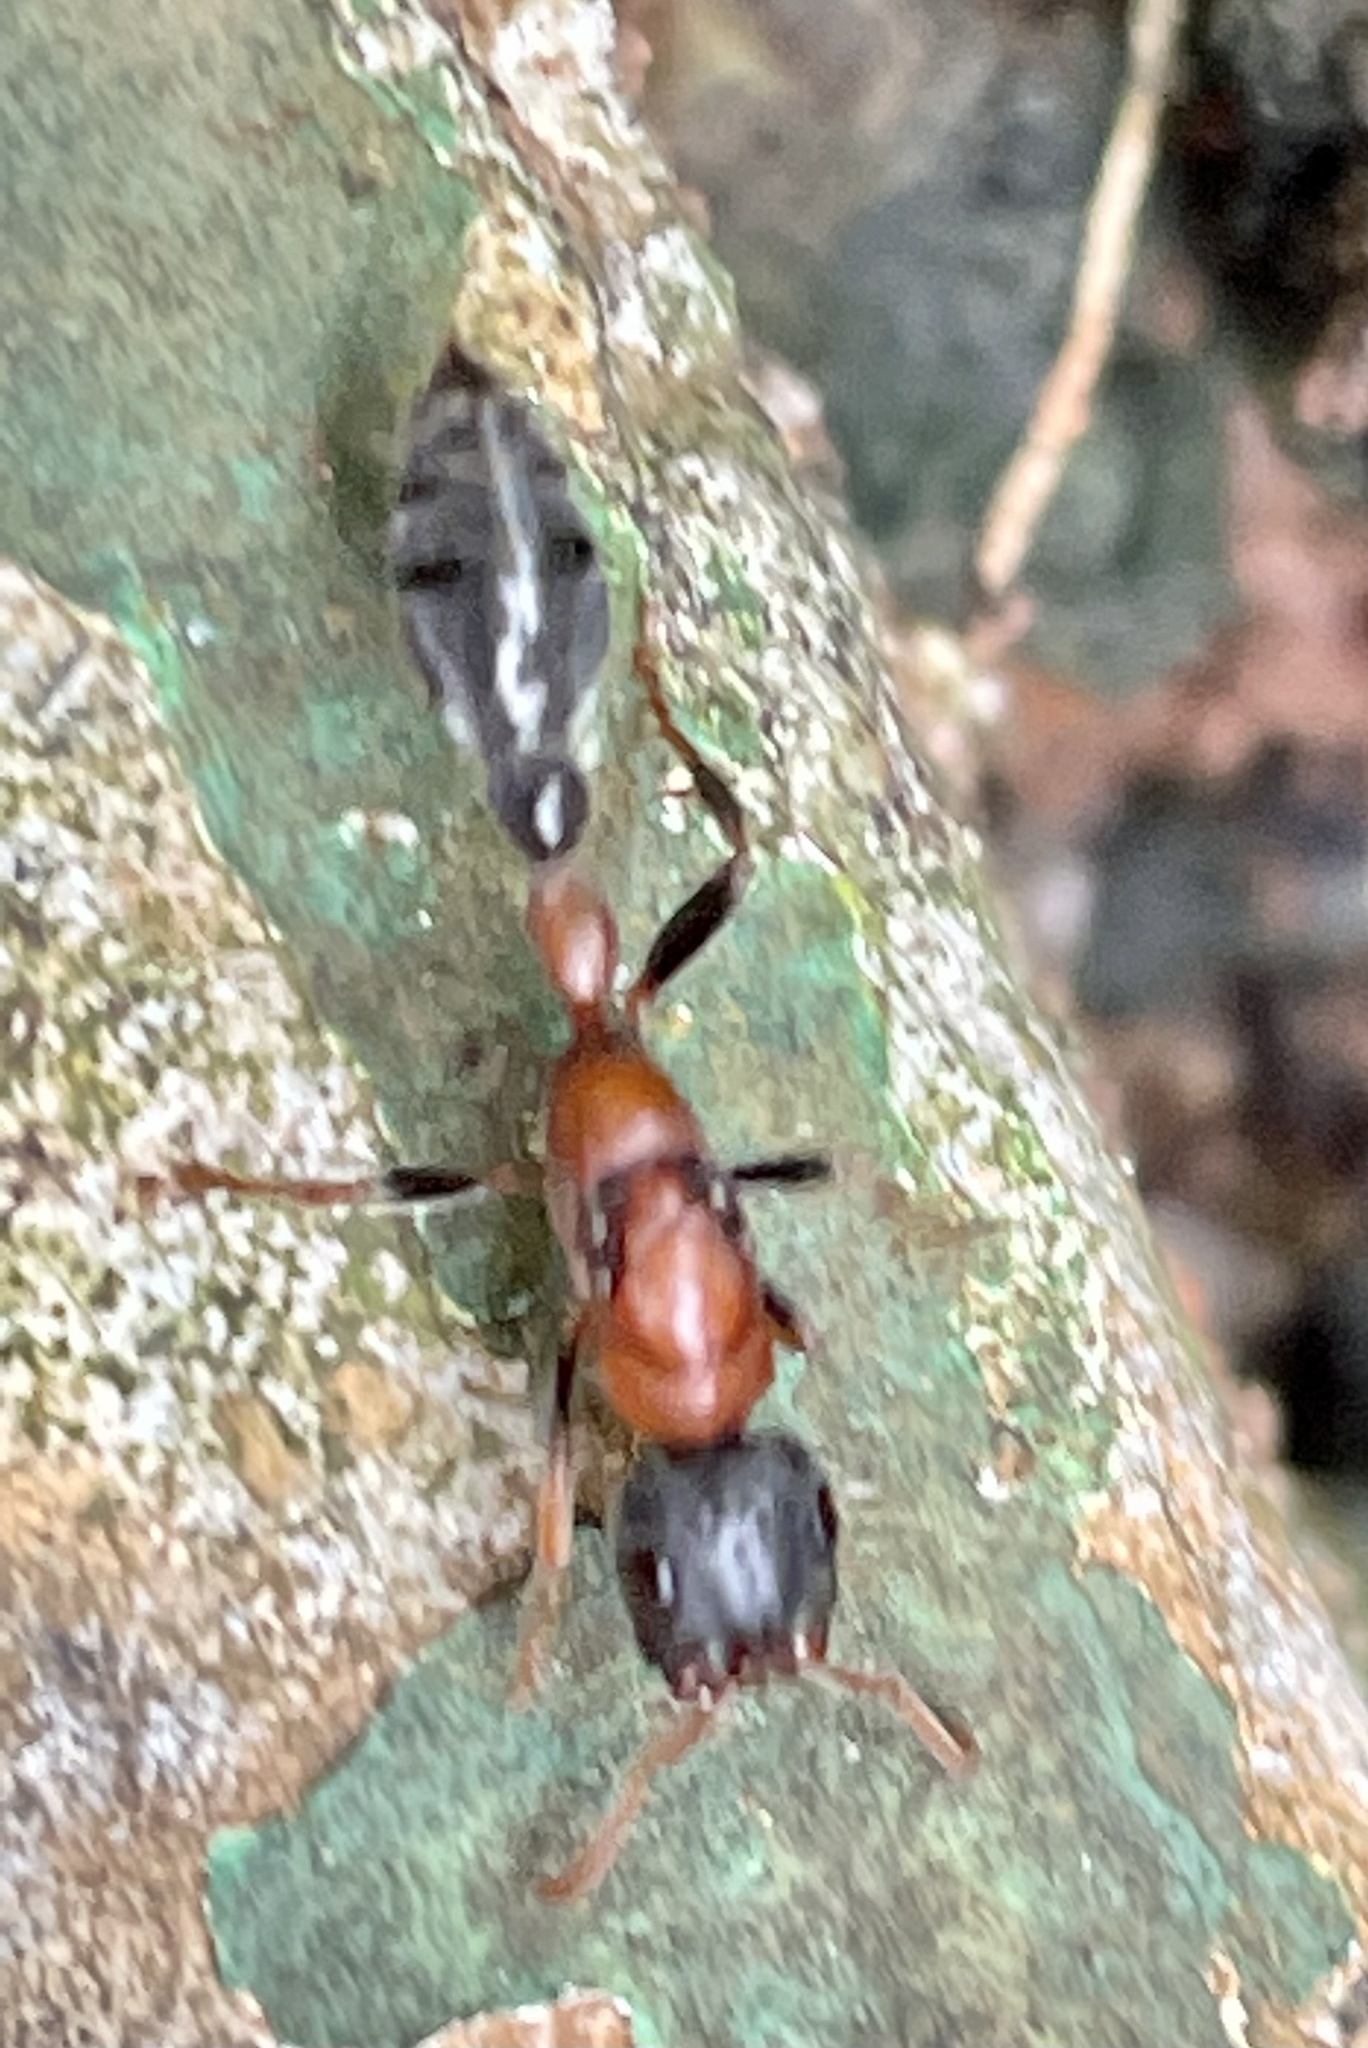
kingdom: Animalia
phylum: Arthropoda
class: Insecta
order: Hymenoptera
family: Formicidae
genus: Tetraponera
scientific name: Tetraponera rufonigra
